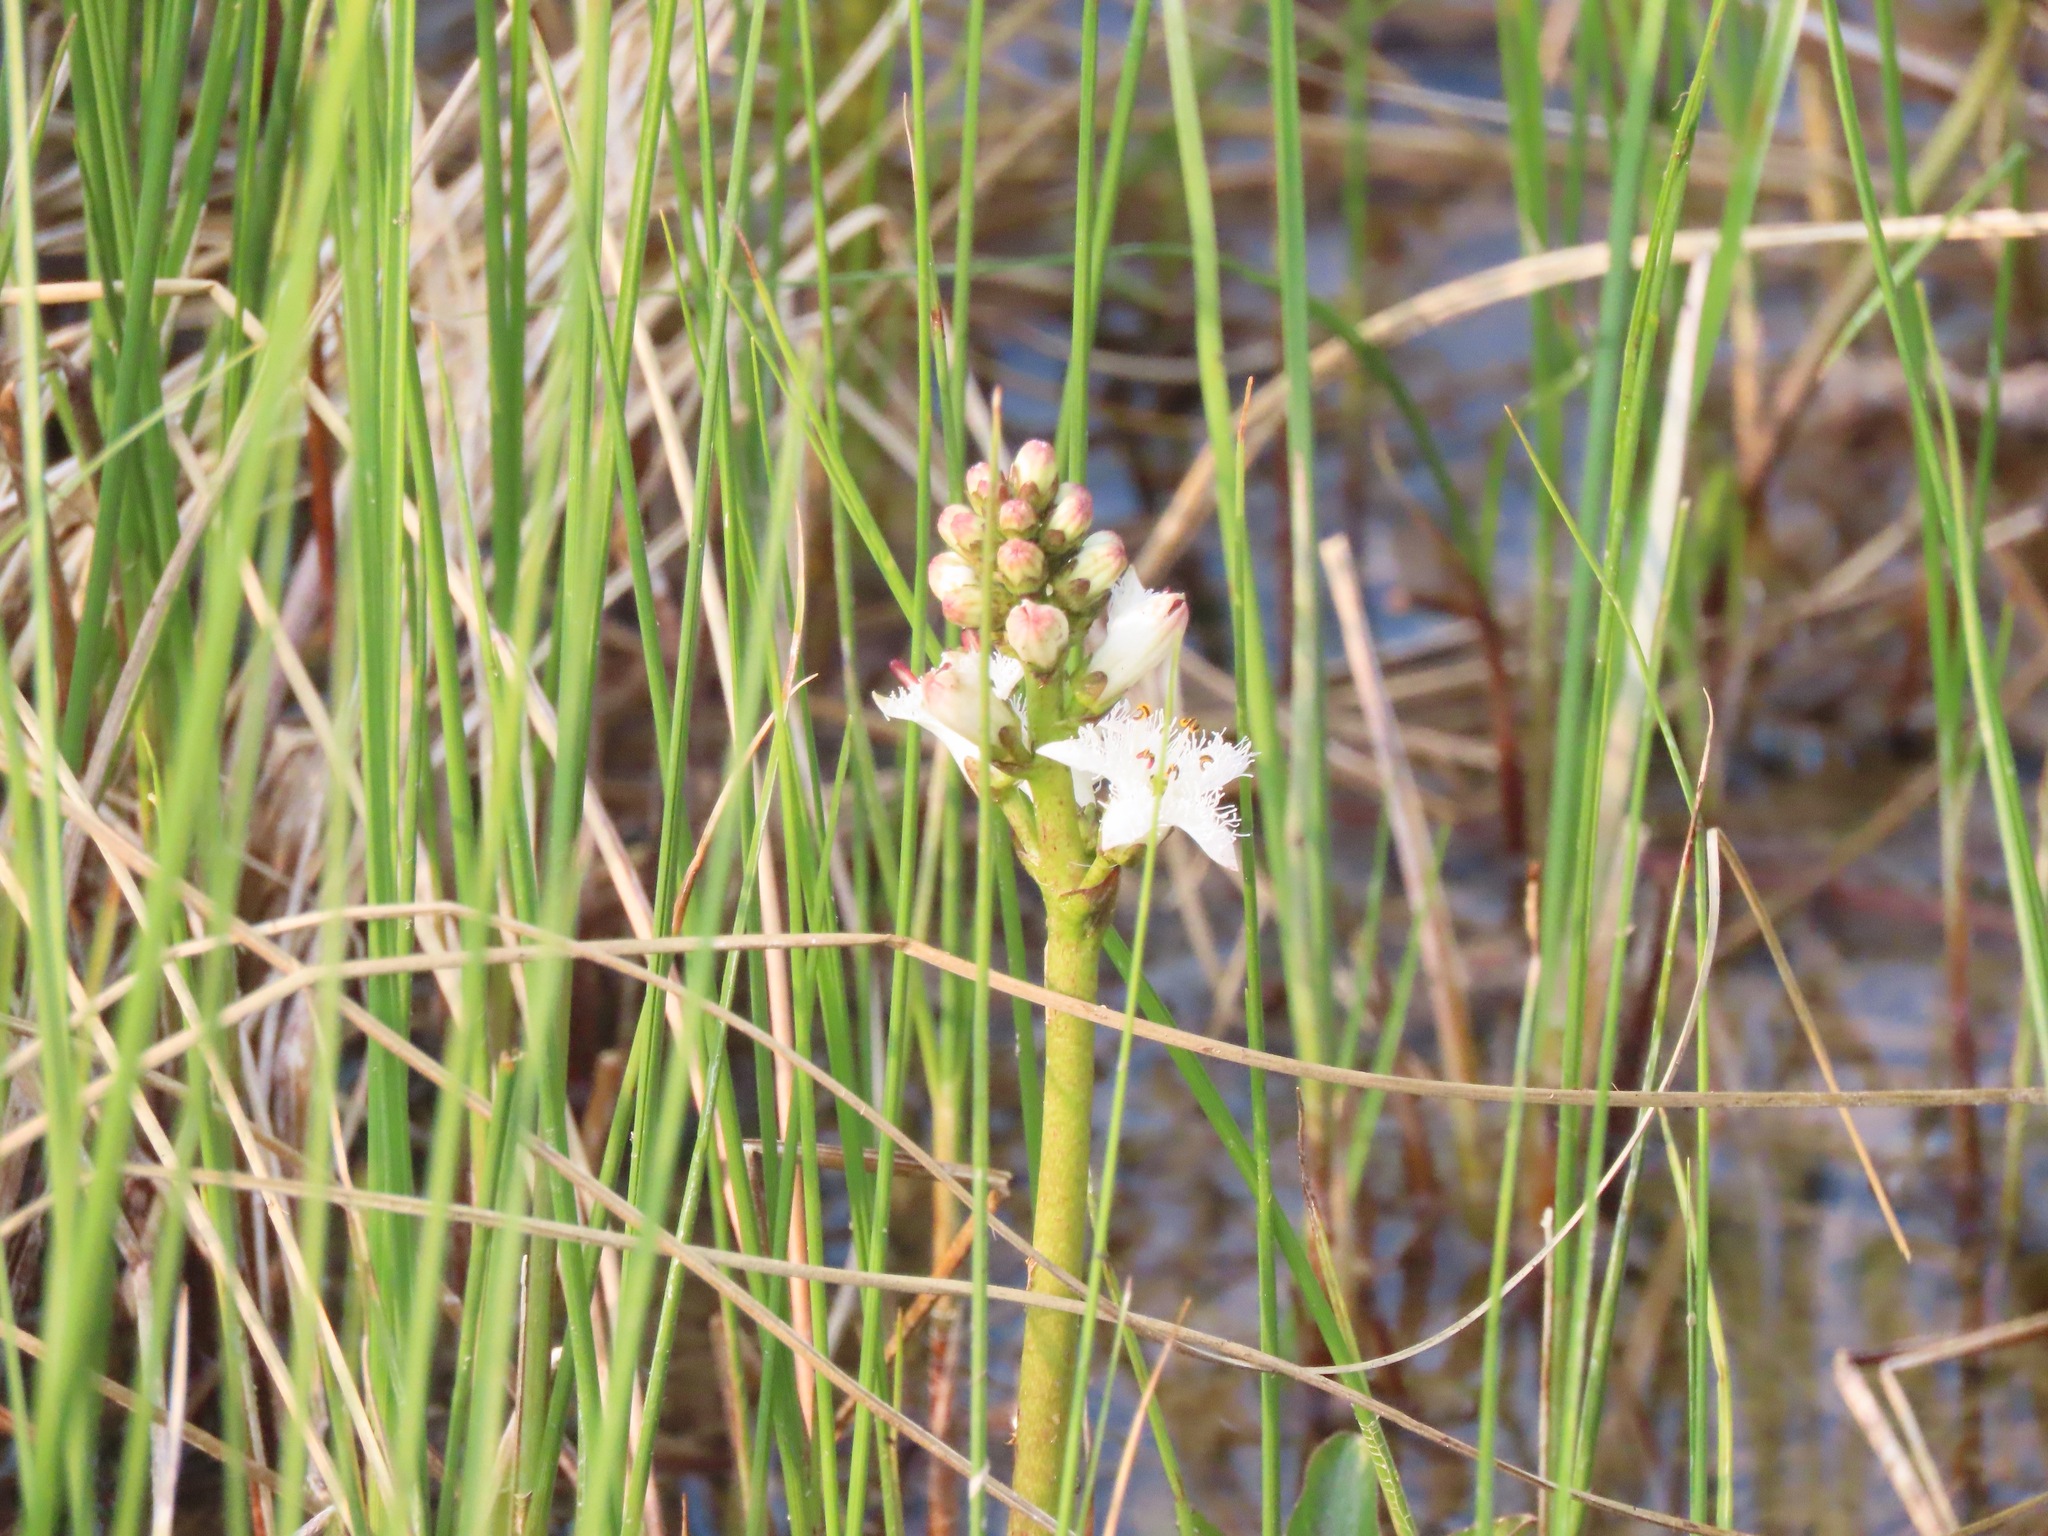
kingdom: Plantae
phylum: Tracheophyta
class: Magnoliopsida
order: Asterales
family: Menyanthaceae
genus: Menyanthes
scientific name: Menyanthes trifoliata
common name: Bogbean
